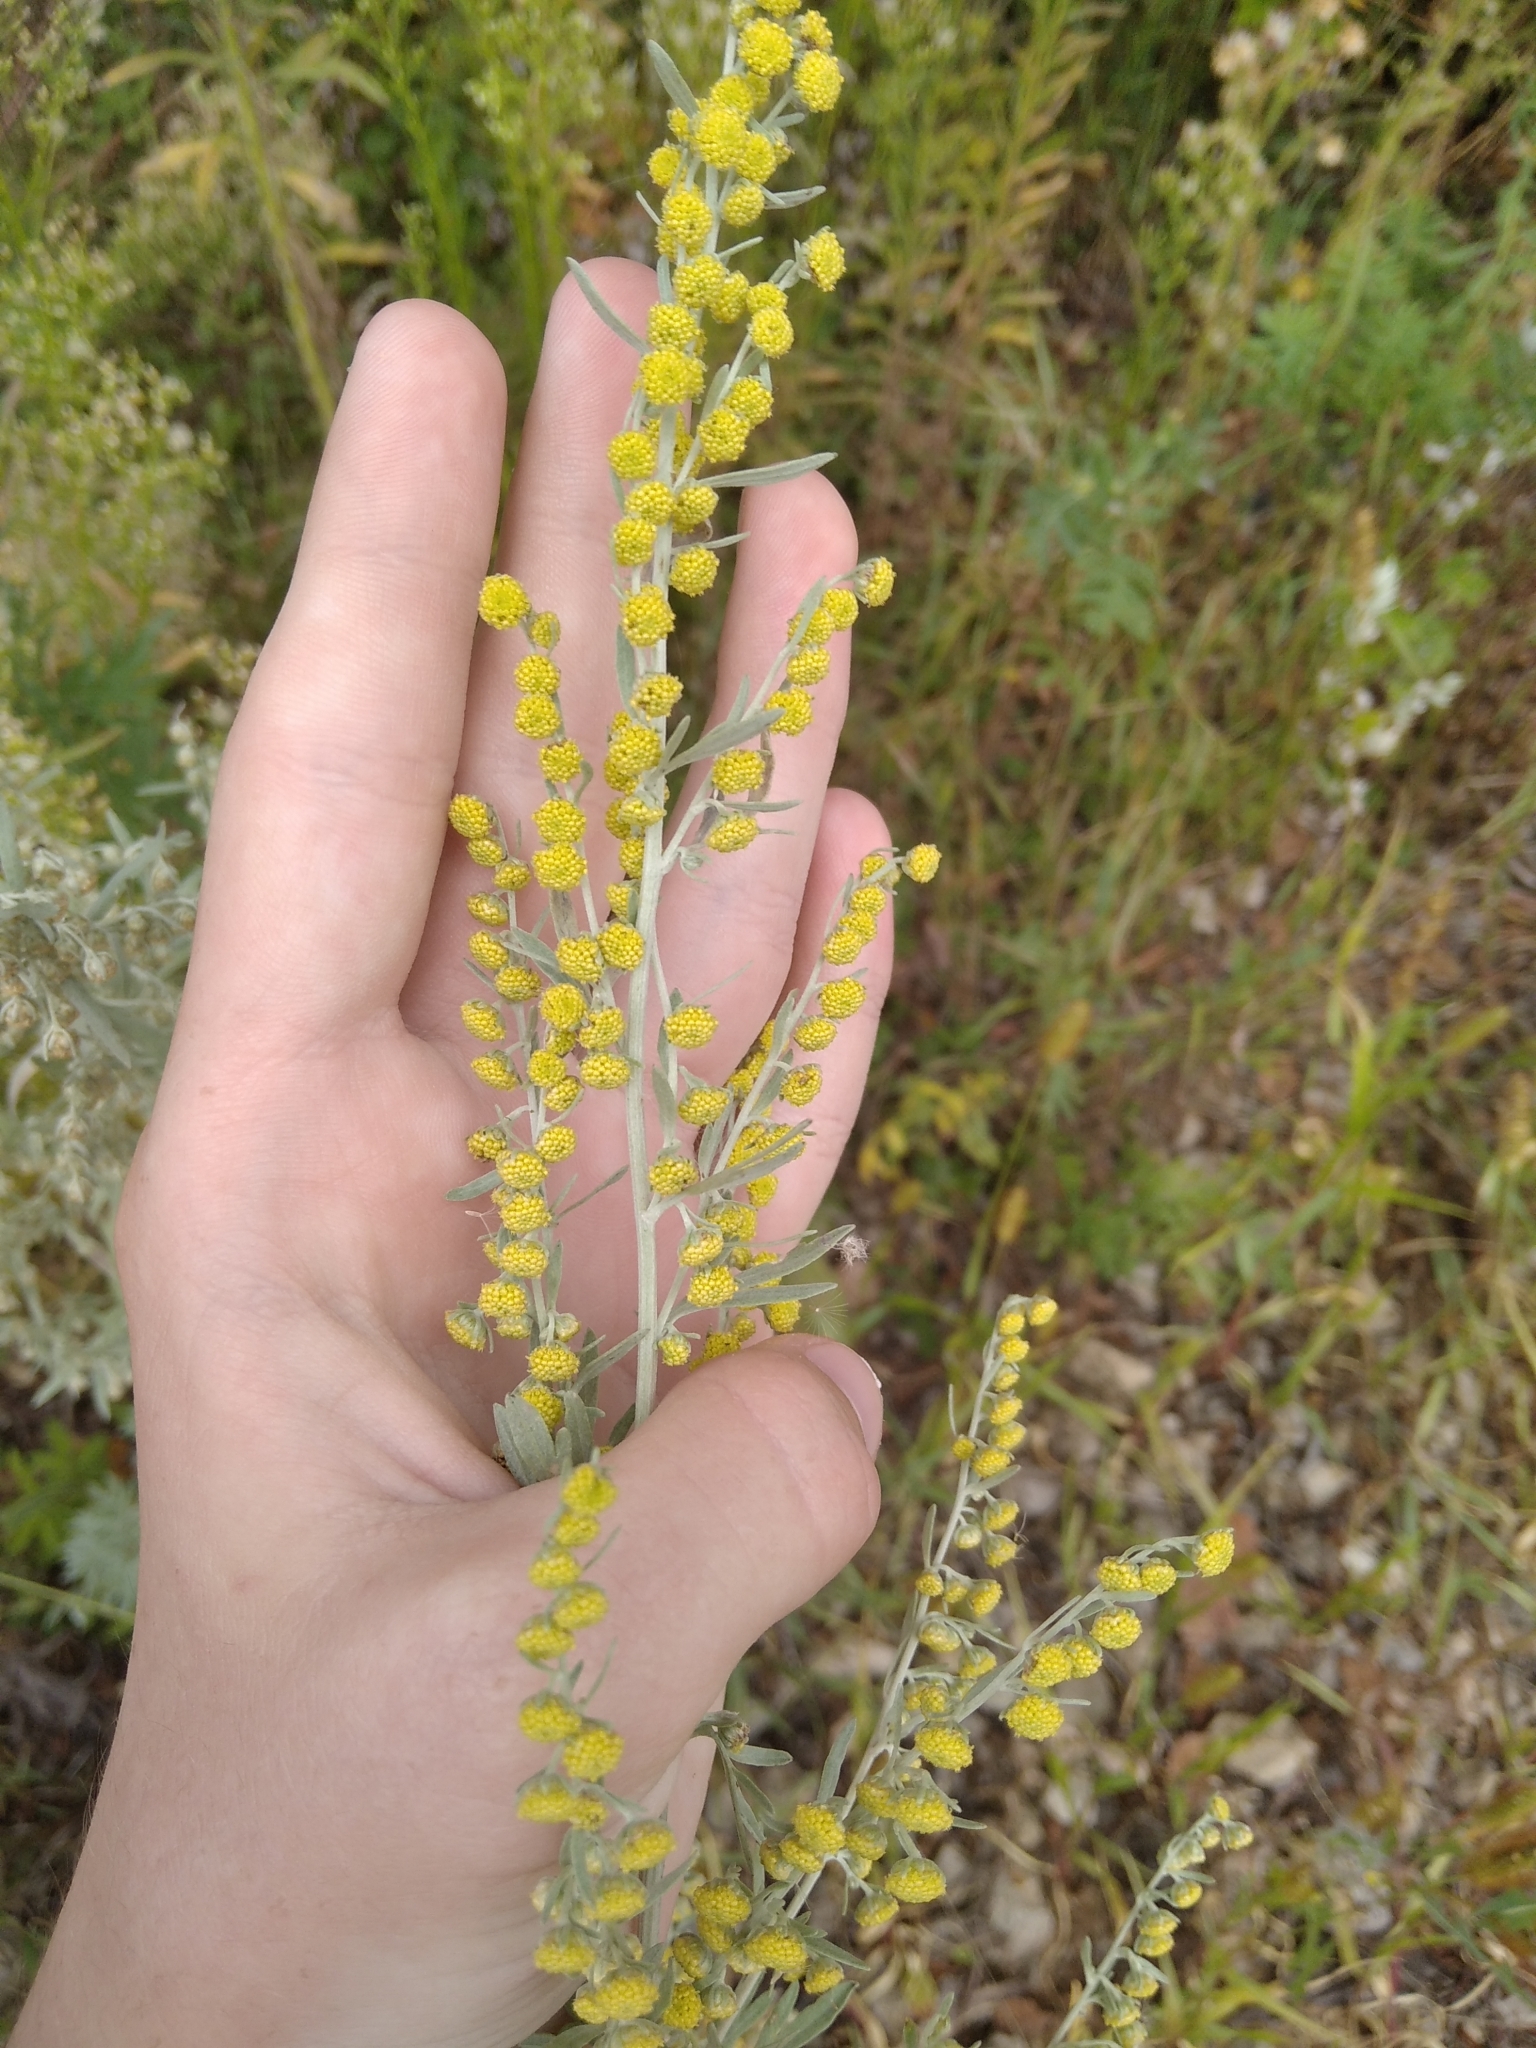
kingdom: Plantae
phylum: Tracheophyta
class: Magnoliopsida
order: Asterales
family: Asteraceae
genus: Artemisia
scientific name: Artemisia absinthium
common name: Wormwood
